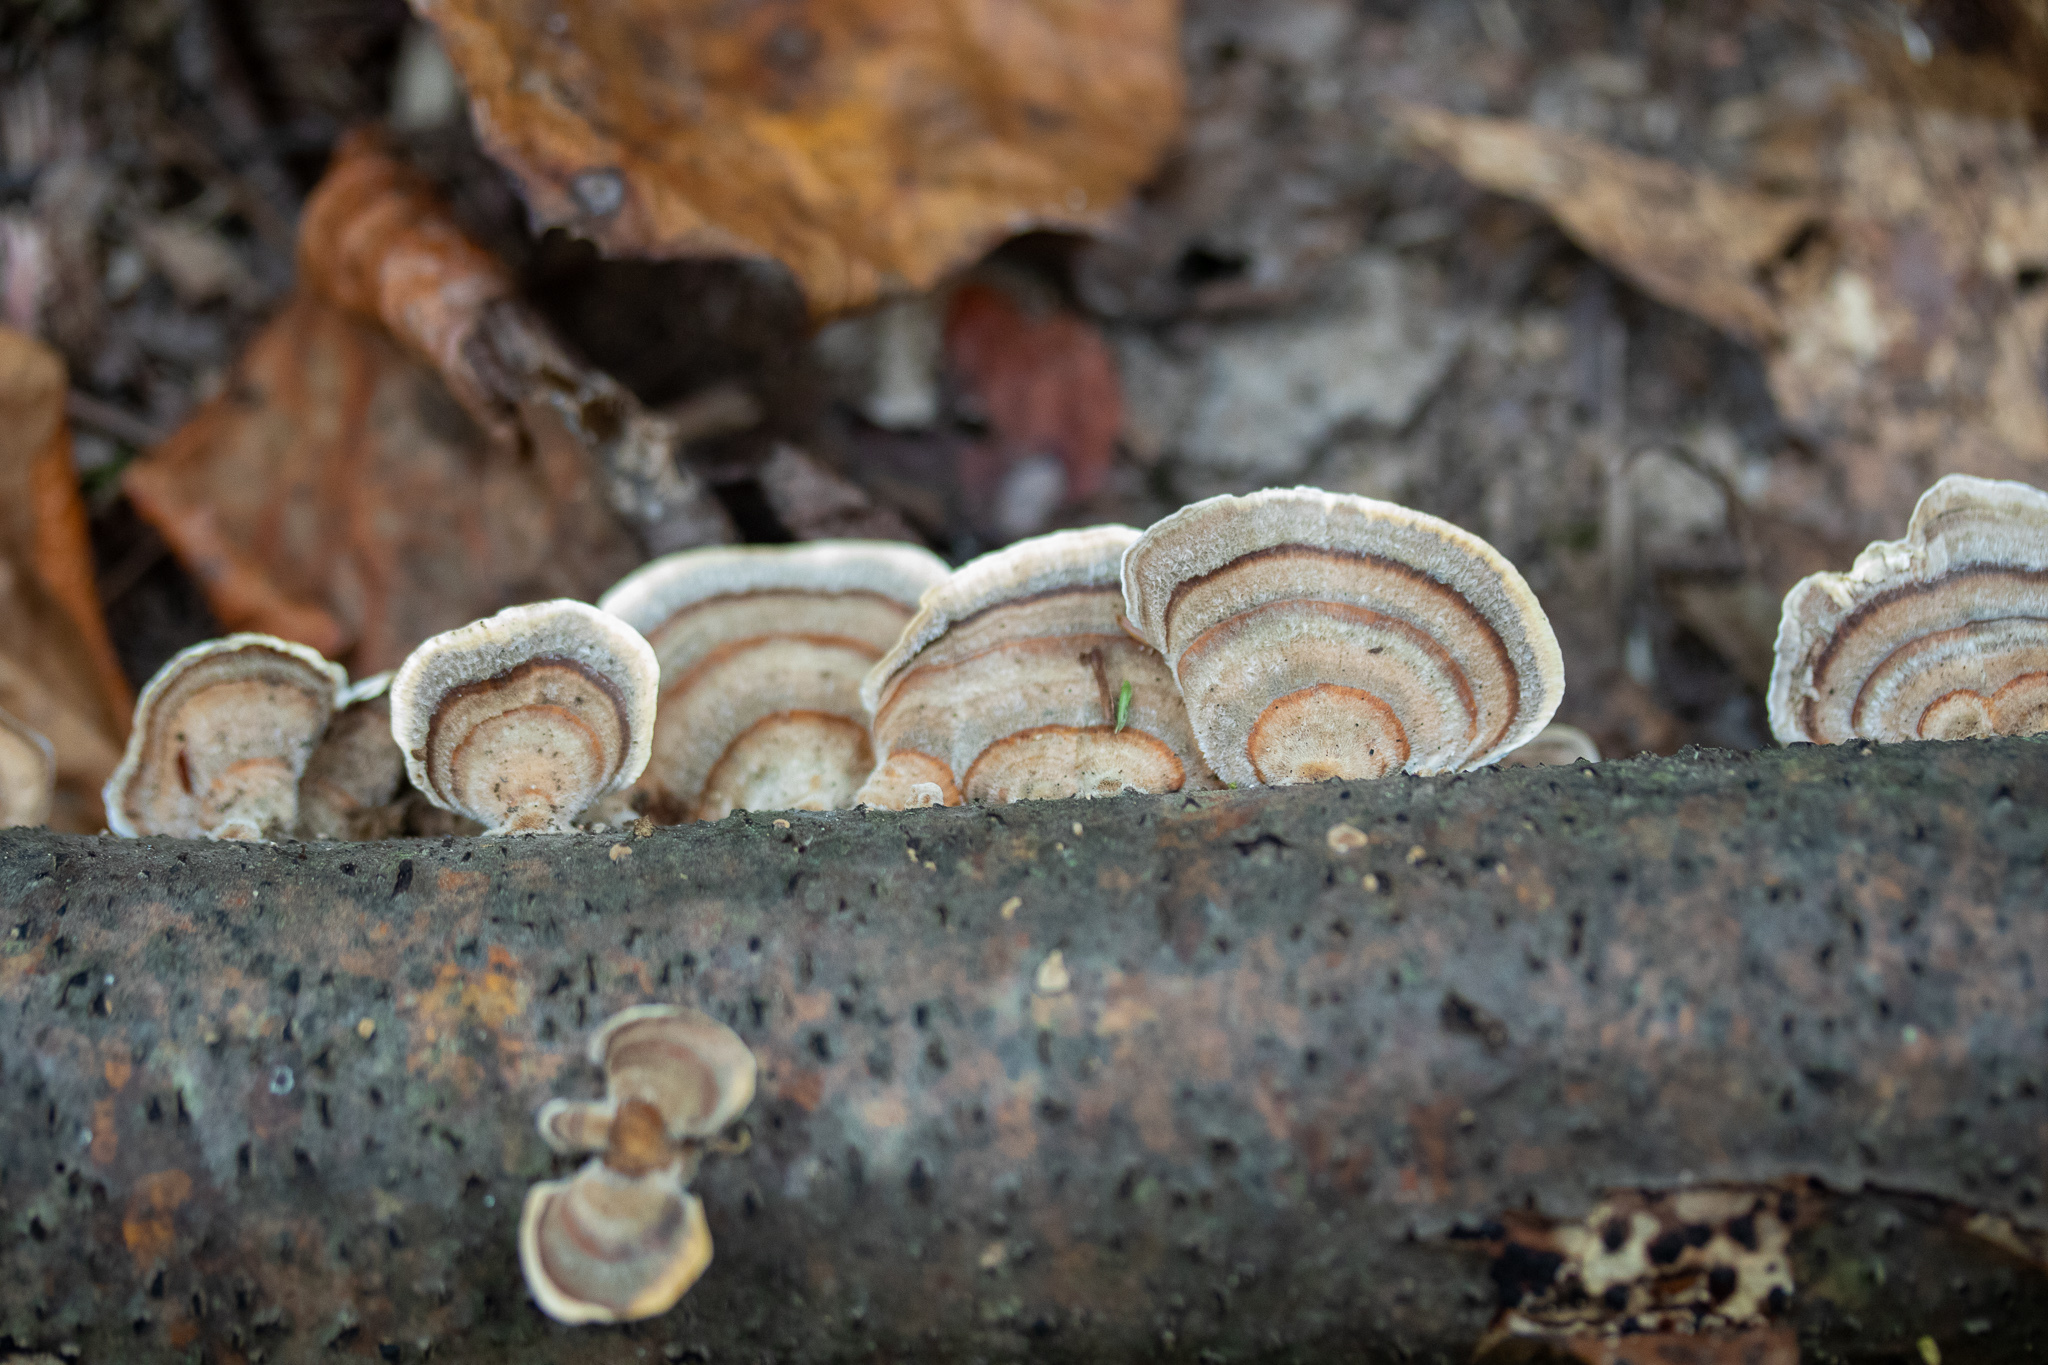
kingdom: Fungi
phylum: Basidiomycota
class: Agaricomycetes
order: Polyporales
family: Polyporaceae
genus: Trametes
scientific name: Trametes versicolor
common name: Turkeytail
